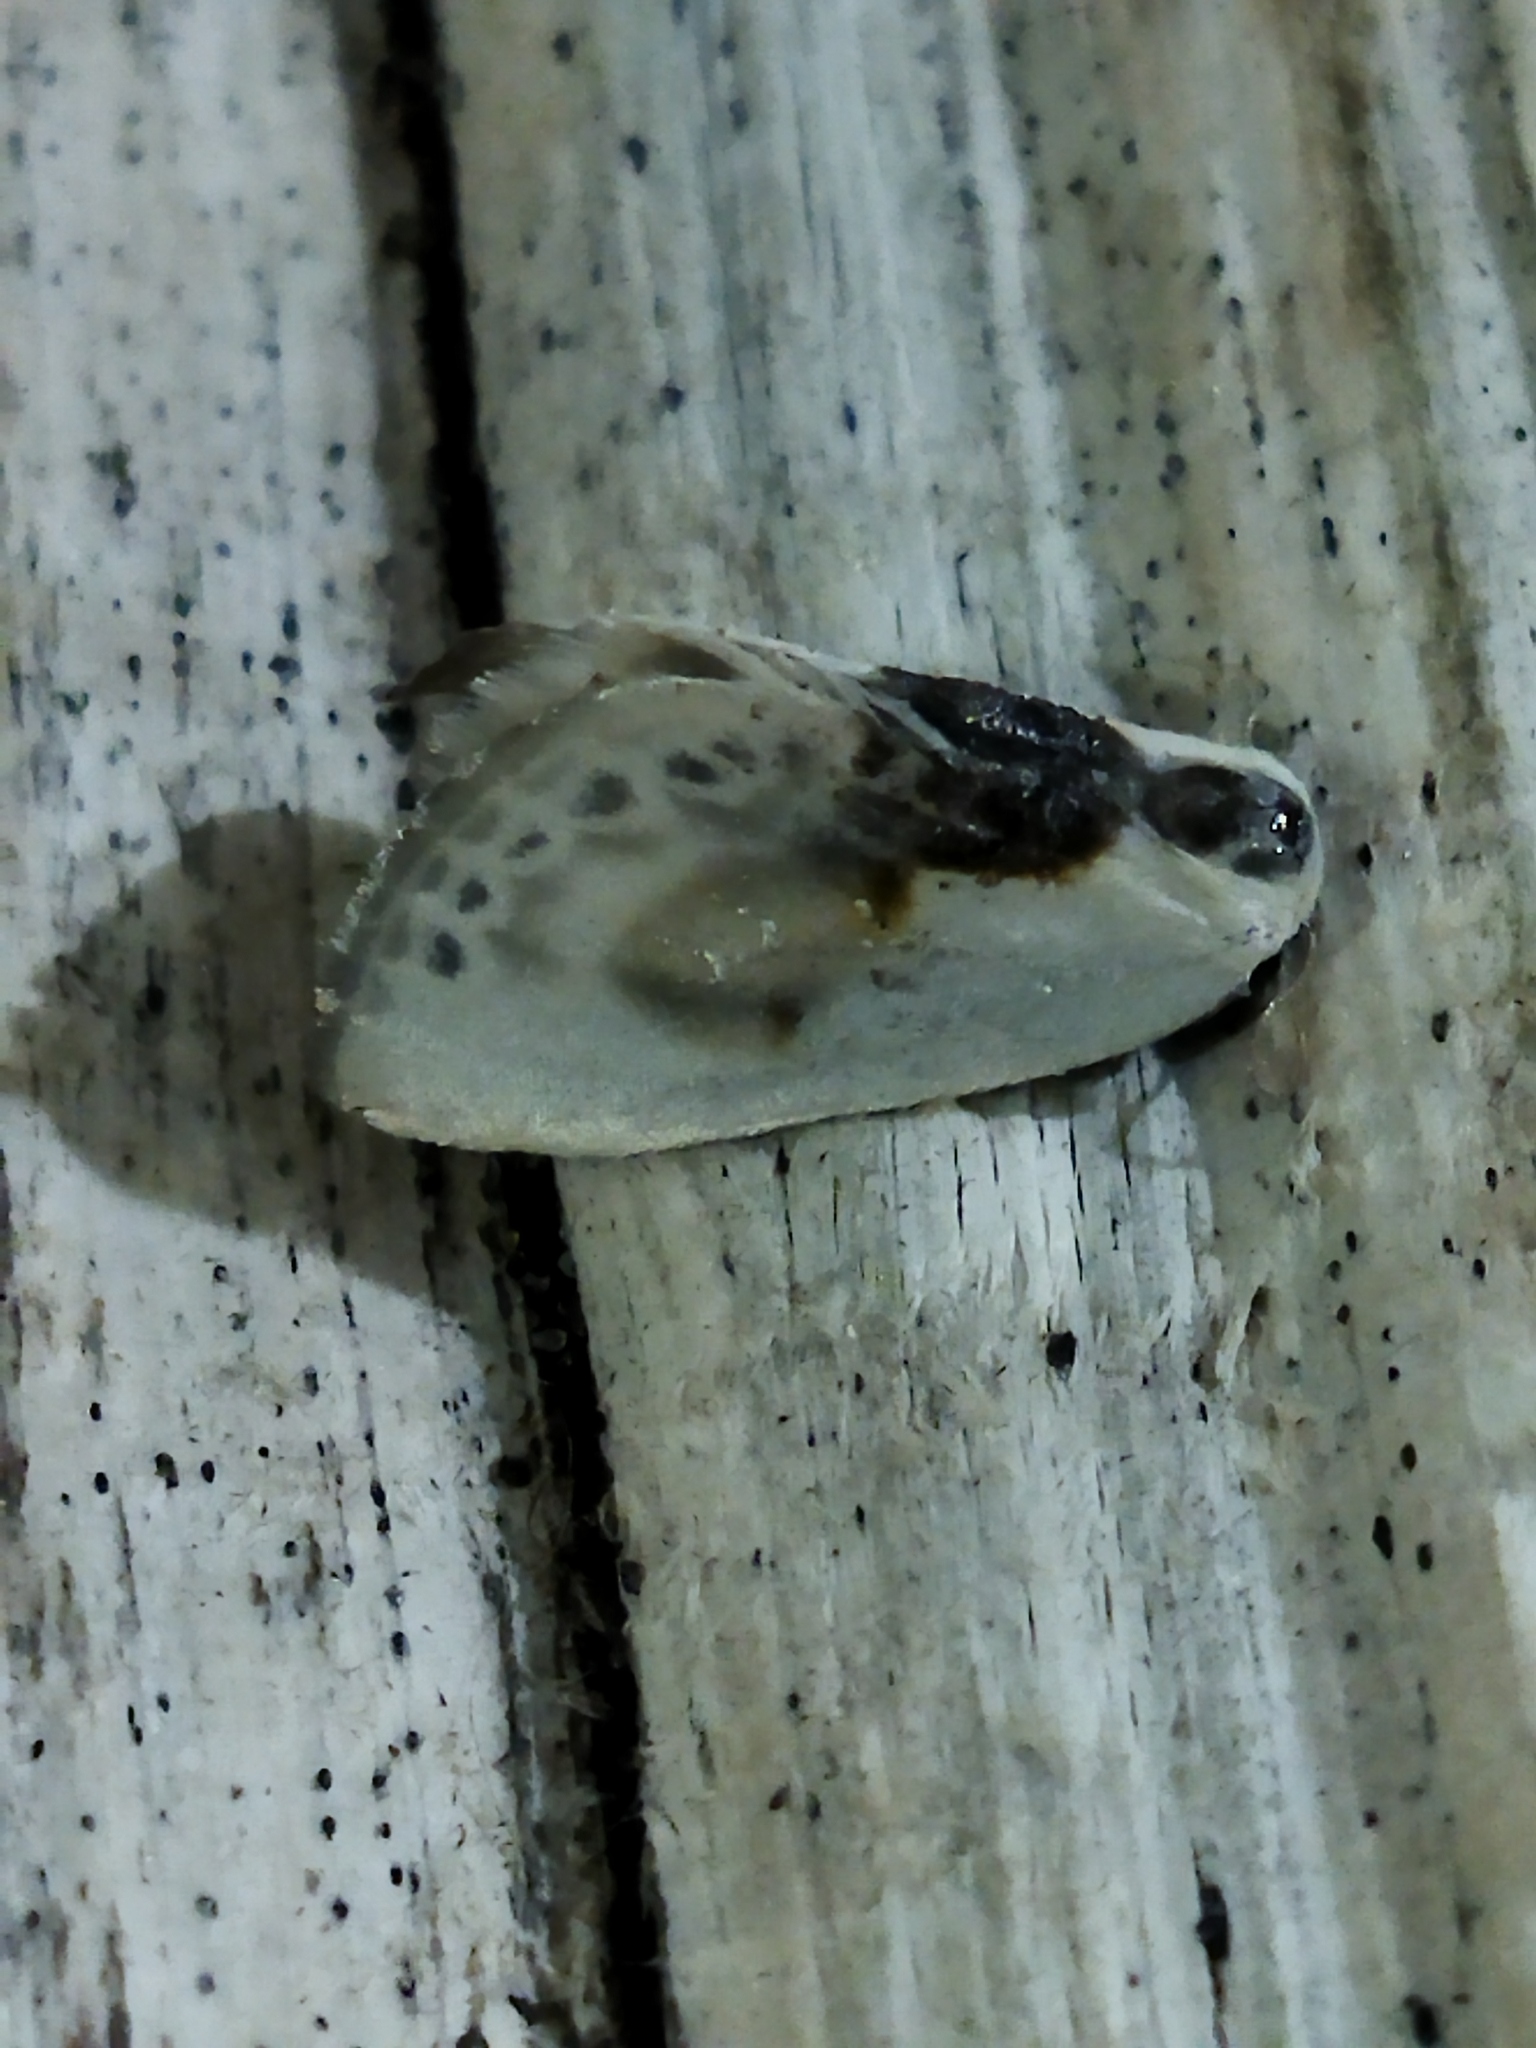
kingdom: Animalia
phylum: Arthropoda
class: Insecta
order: Lepidoptera
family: Drepanidae
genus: Cilix
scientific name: Cilix glaucata
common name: Chinese character
